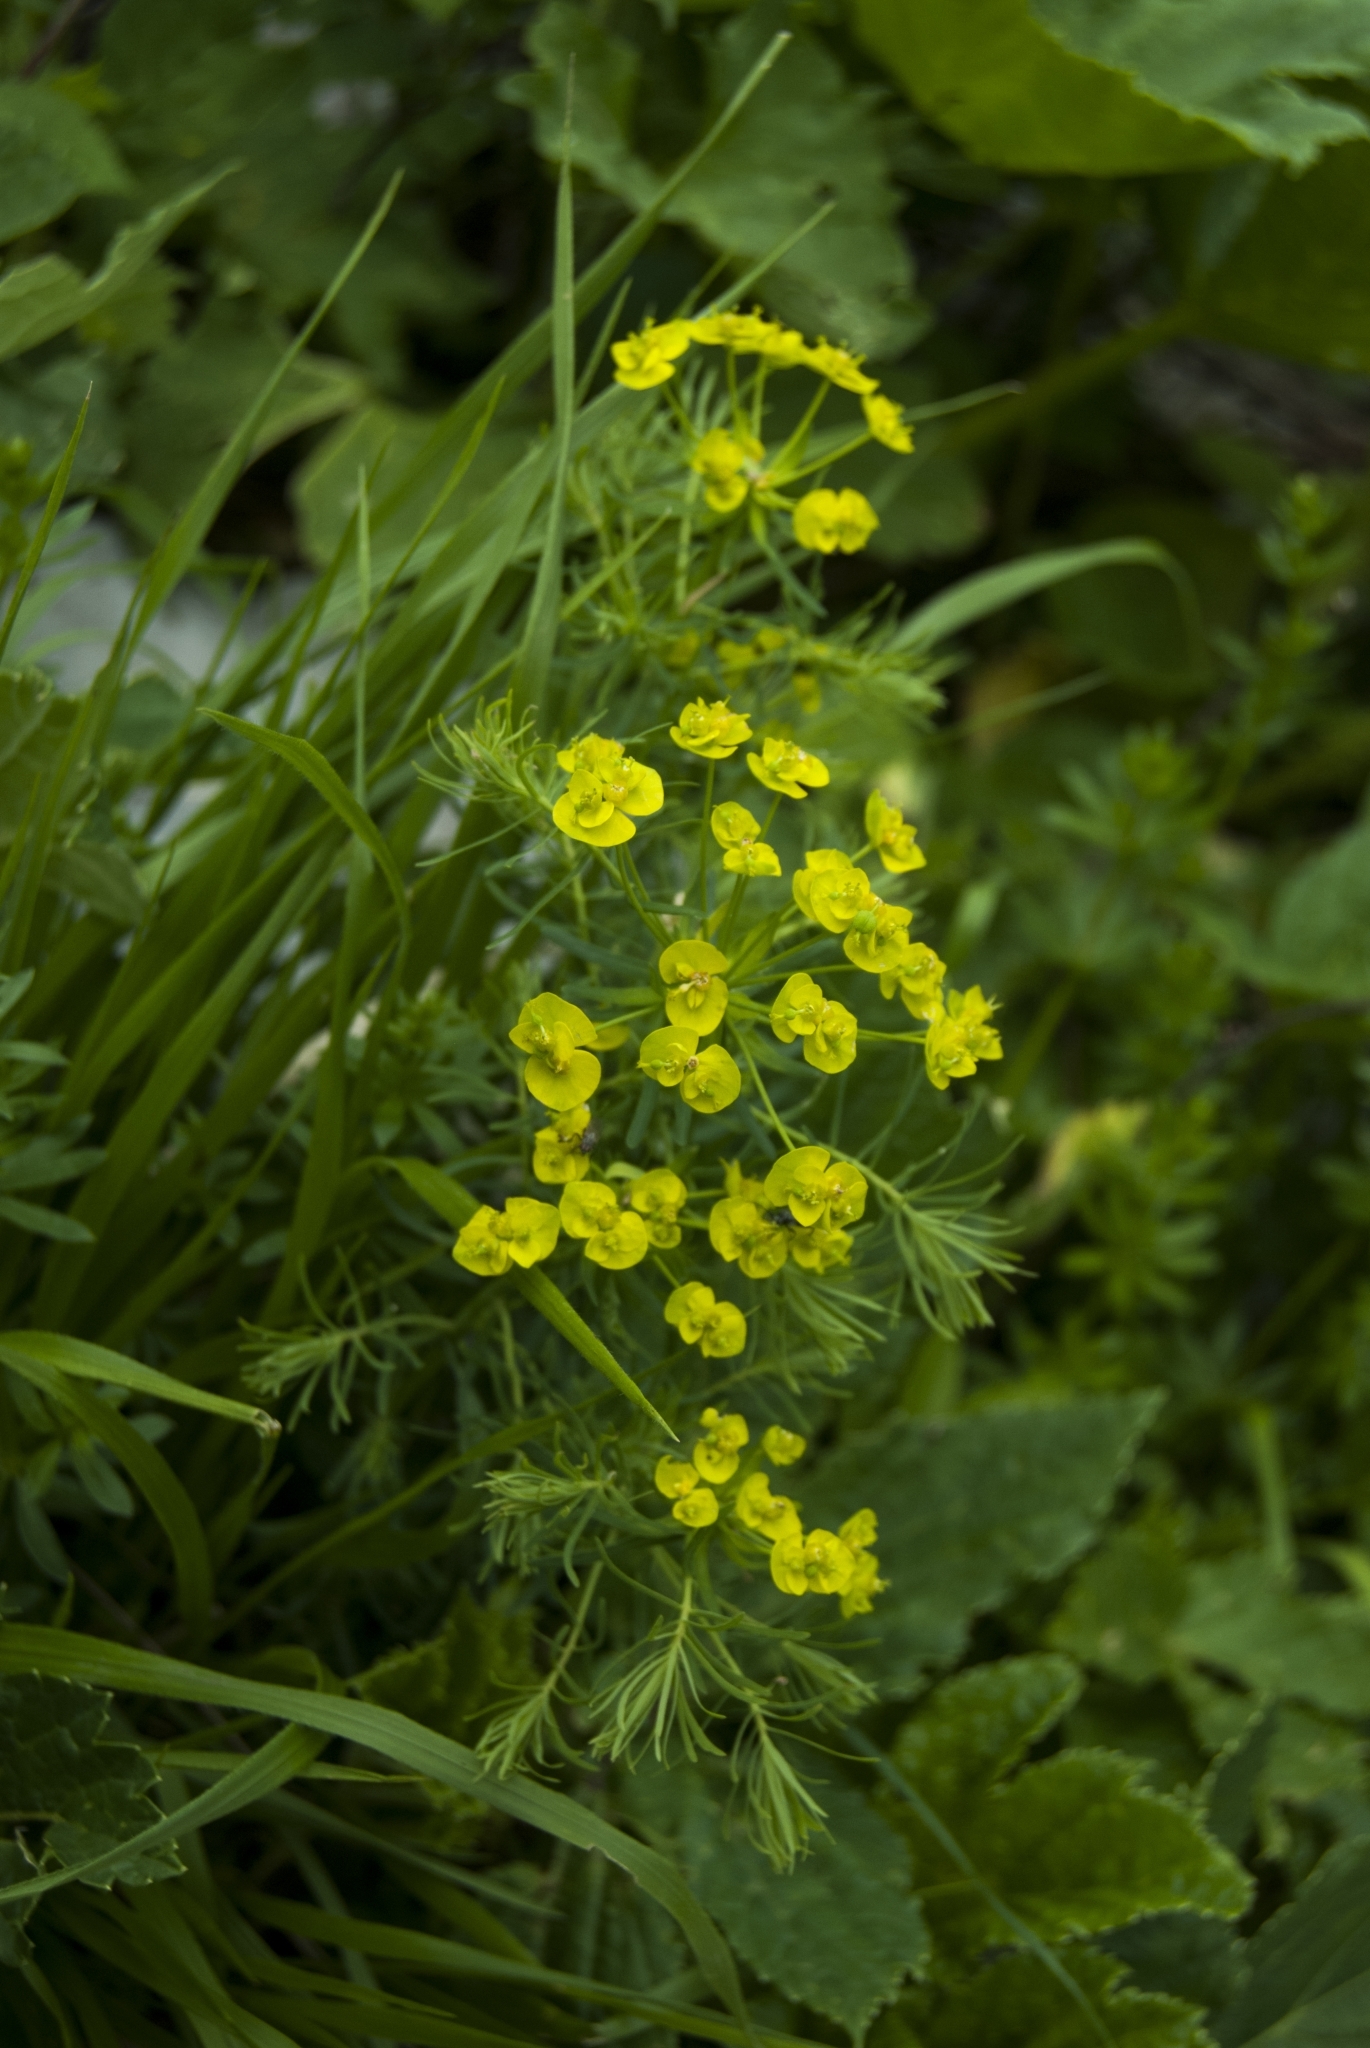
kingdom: Plantae
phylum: Tracheophyta
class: Magnoliopsida
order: Malpighiales
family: Euphorbiaceae
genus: Euphorbia
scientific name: Euphorbia cyparissias
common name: Cypress spurge
